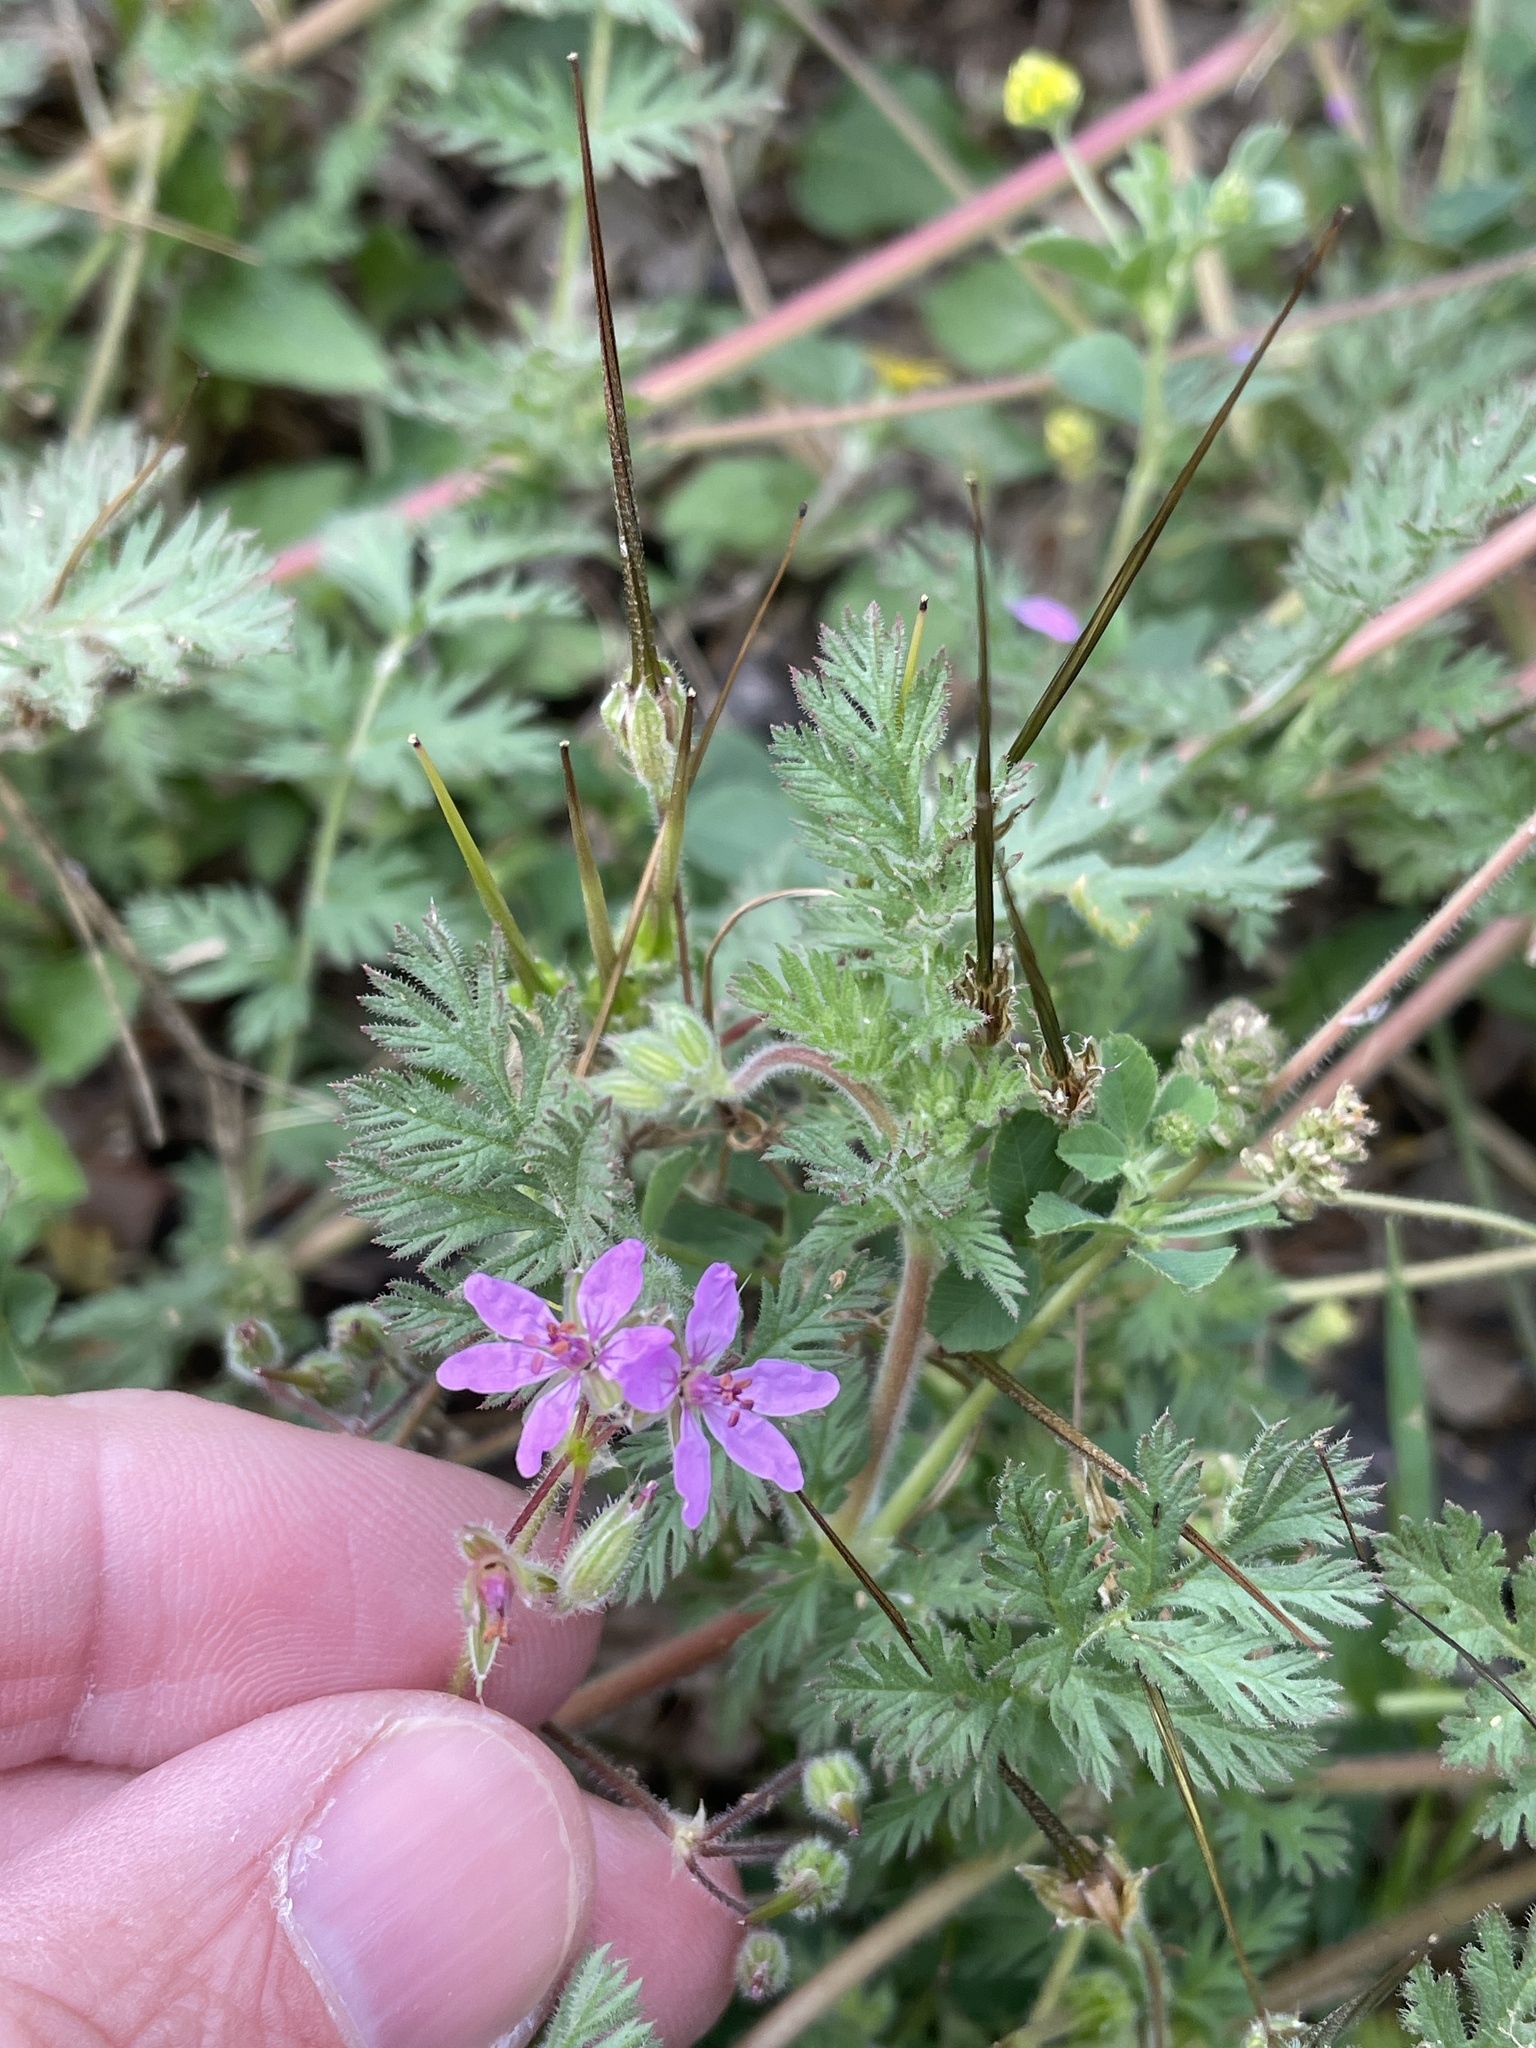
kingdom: Plantae
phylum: Tracheophyta
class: Magnoliopsida
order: Geraniales
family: Geraniaceae
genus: Erodium
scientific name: Erodium cicutarium
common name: Common stork's-bill
